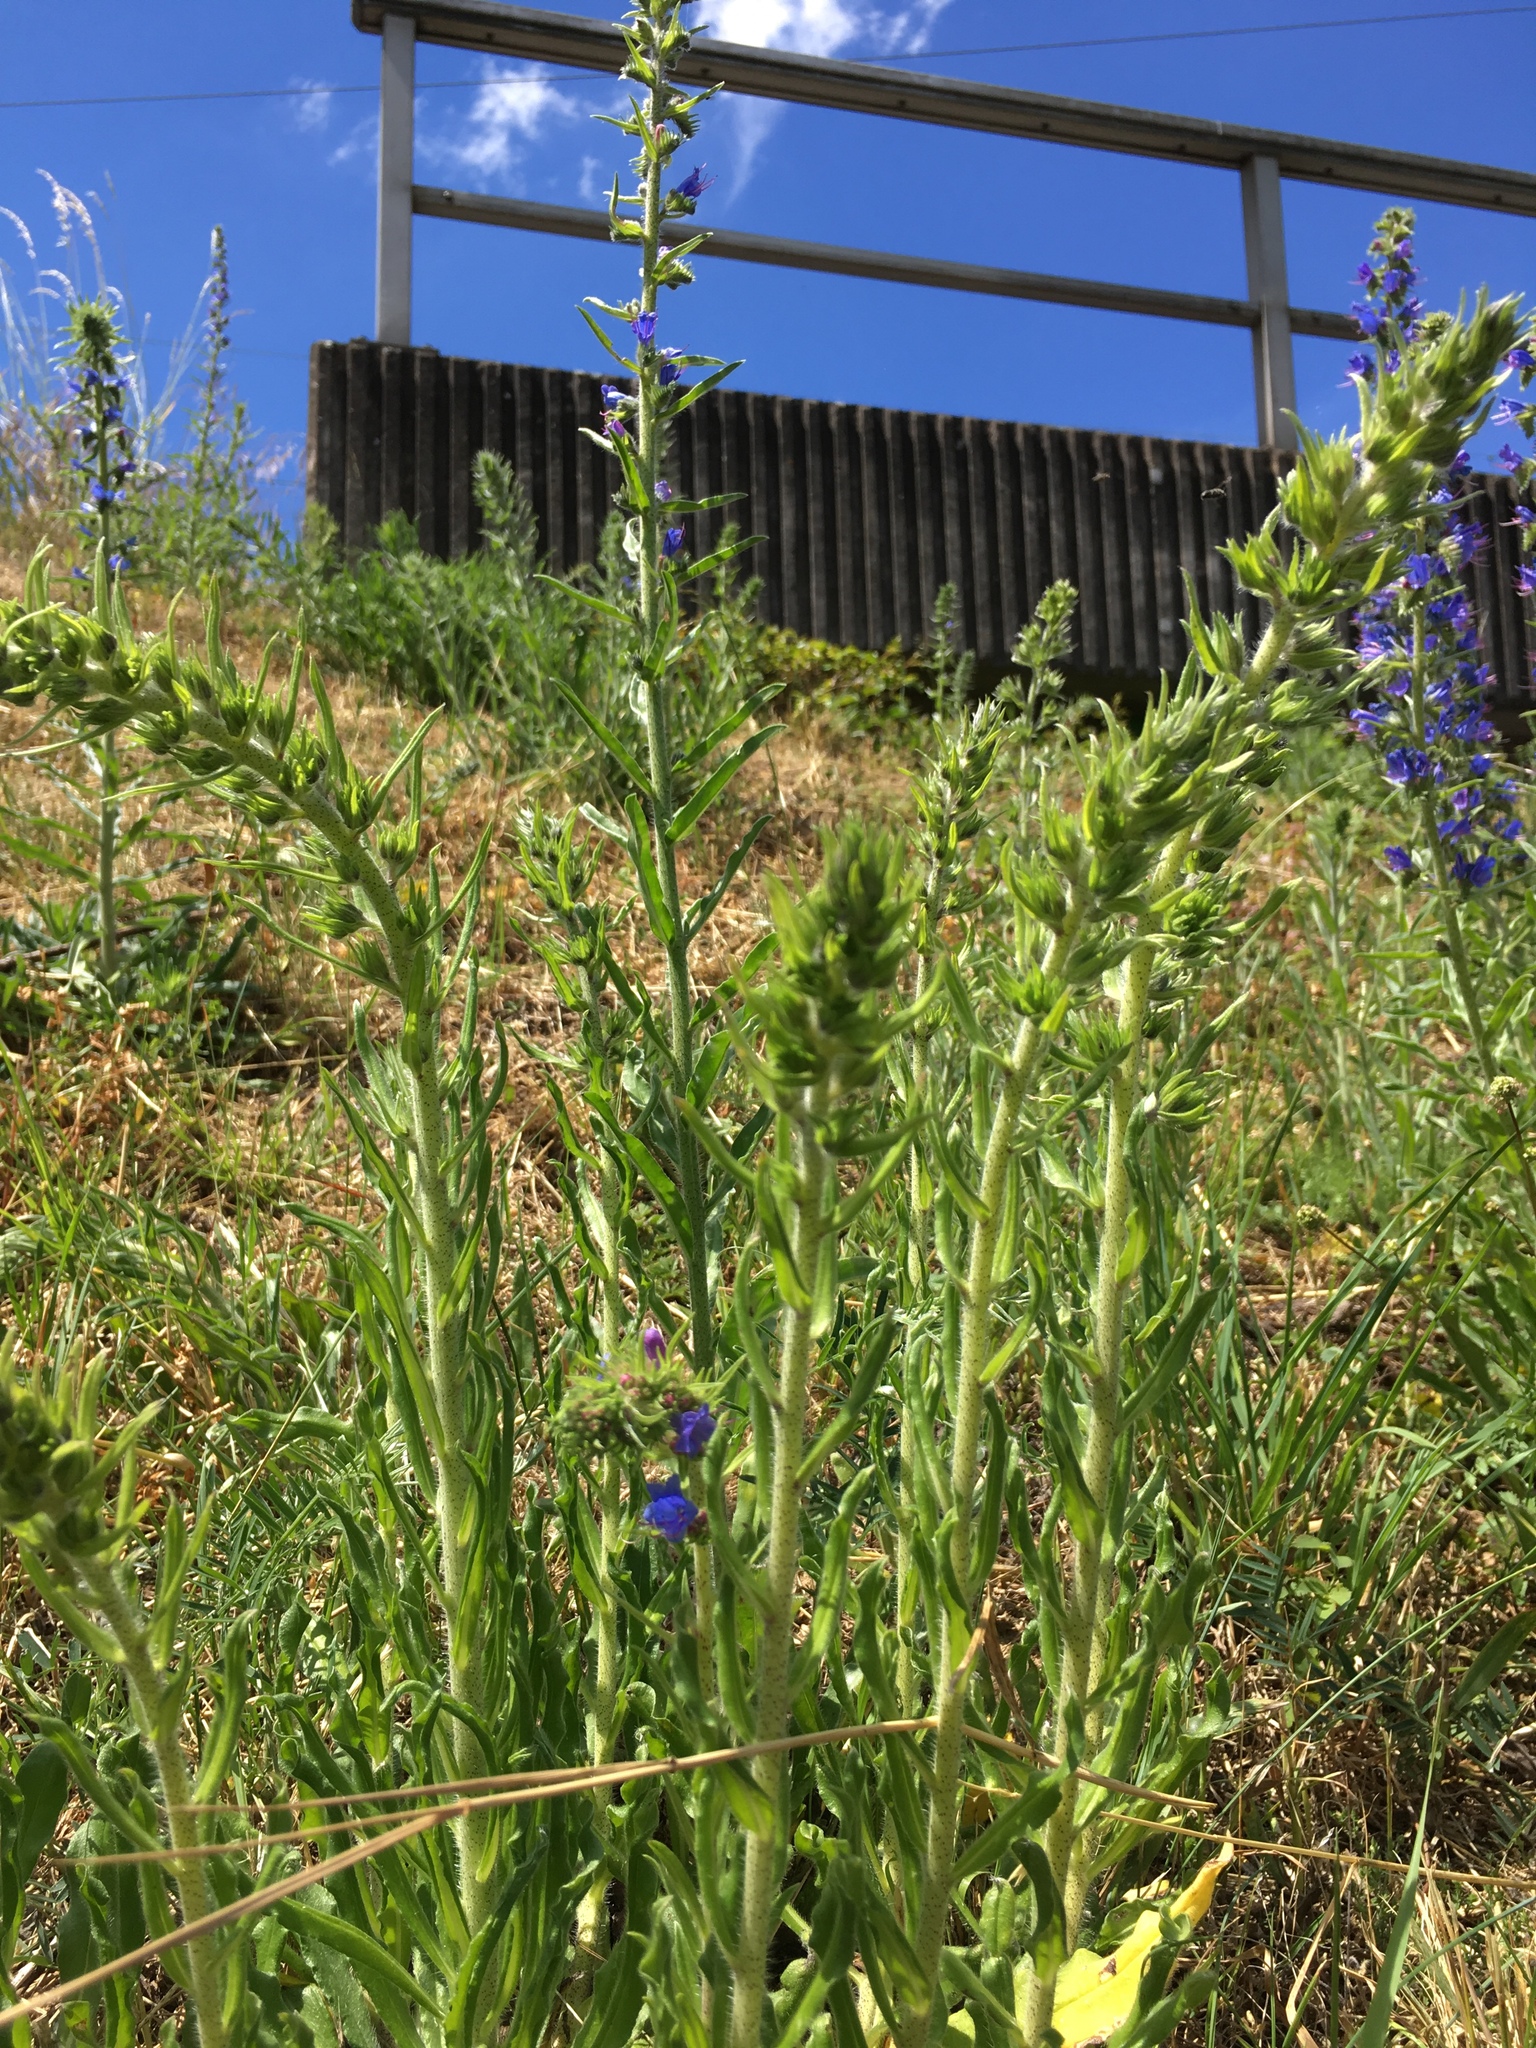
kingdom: Plantae
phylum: Tracheophyta
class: Magnoliopsida
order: Boraginales
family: Boraginaceae
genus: Echium
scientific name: Echium vulgare
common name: Common viper's bugloss
